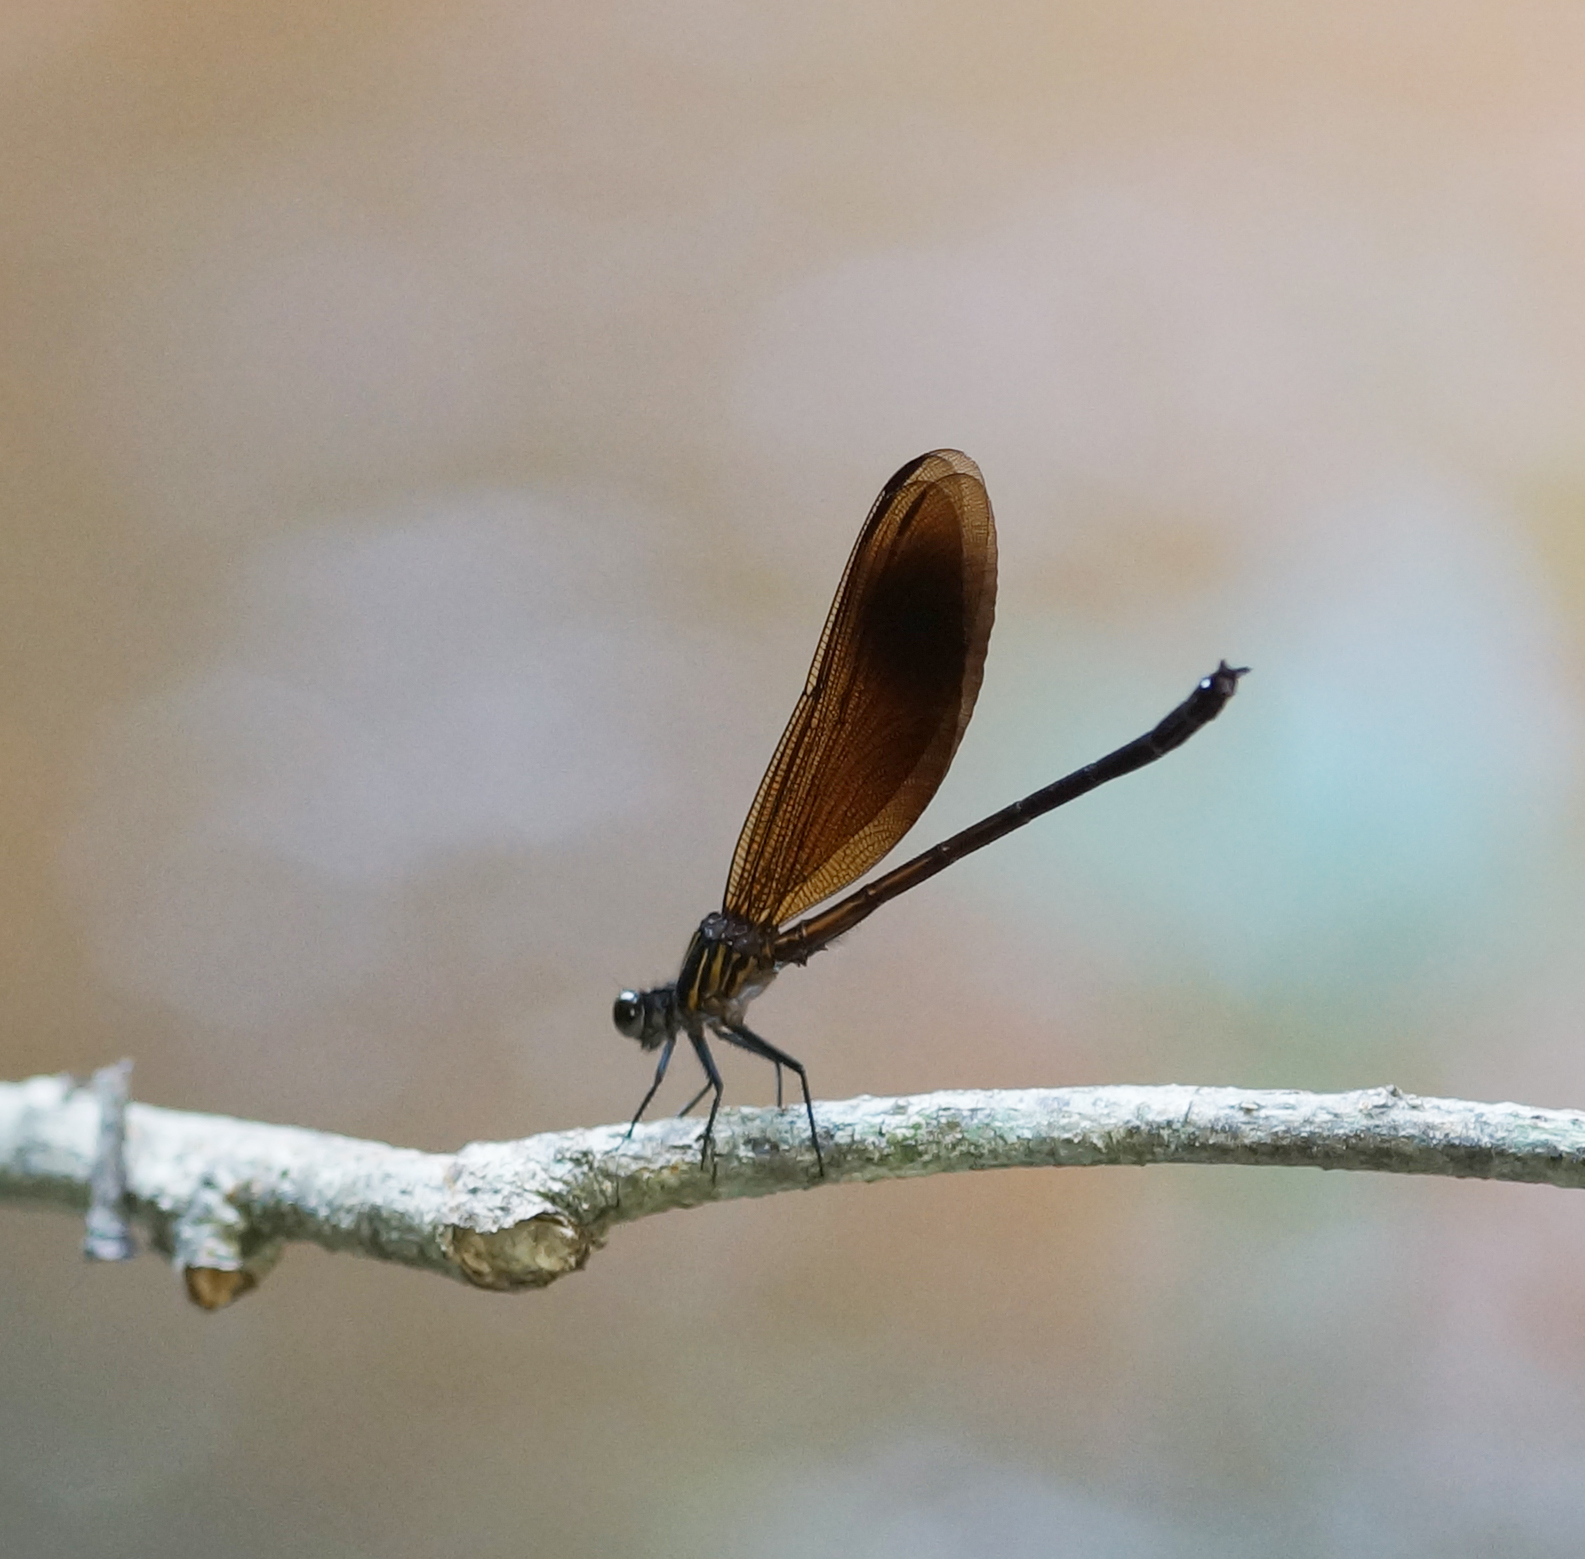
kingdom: Animalia
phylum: Arthropoda
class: Insecta
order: Odonata
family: Euphaeidae
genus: Euphaea
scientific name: Euphaea masoni
